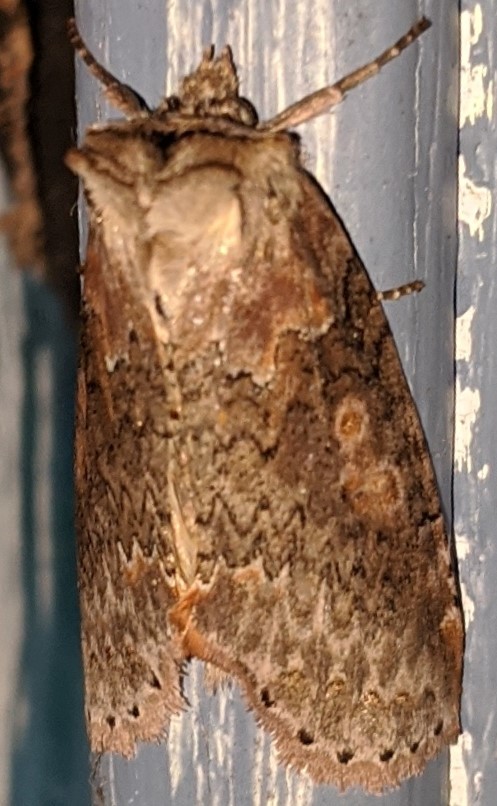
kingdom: Animalia
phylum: Arthropoda
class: Insecta
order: Lepidoptera
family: Drepanidae
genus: Pseudothyatira
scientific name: Pseudothyatira cymatophoroides
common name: Tufted thyatirid moth
